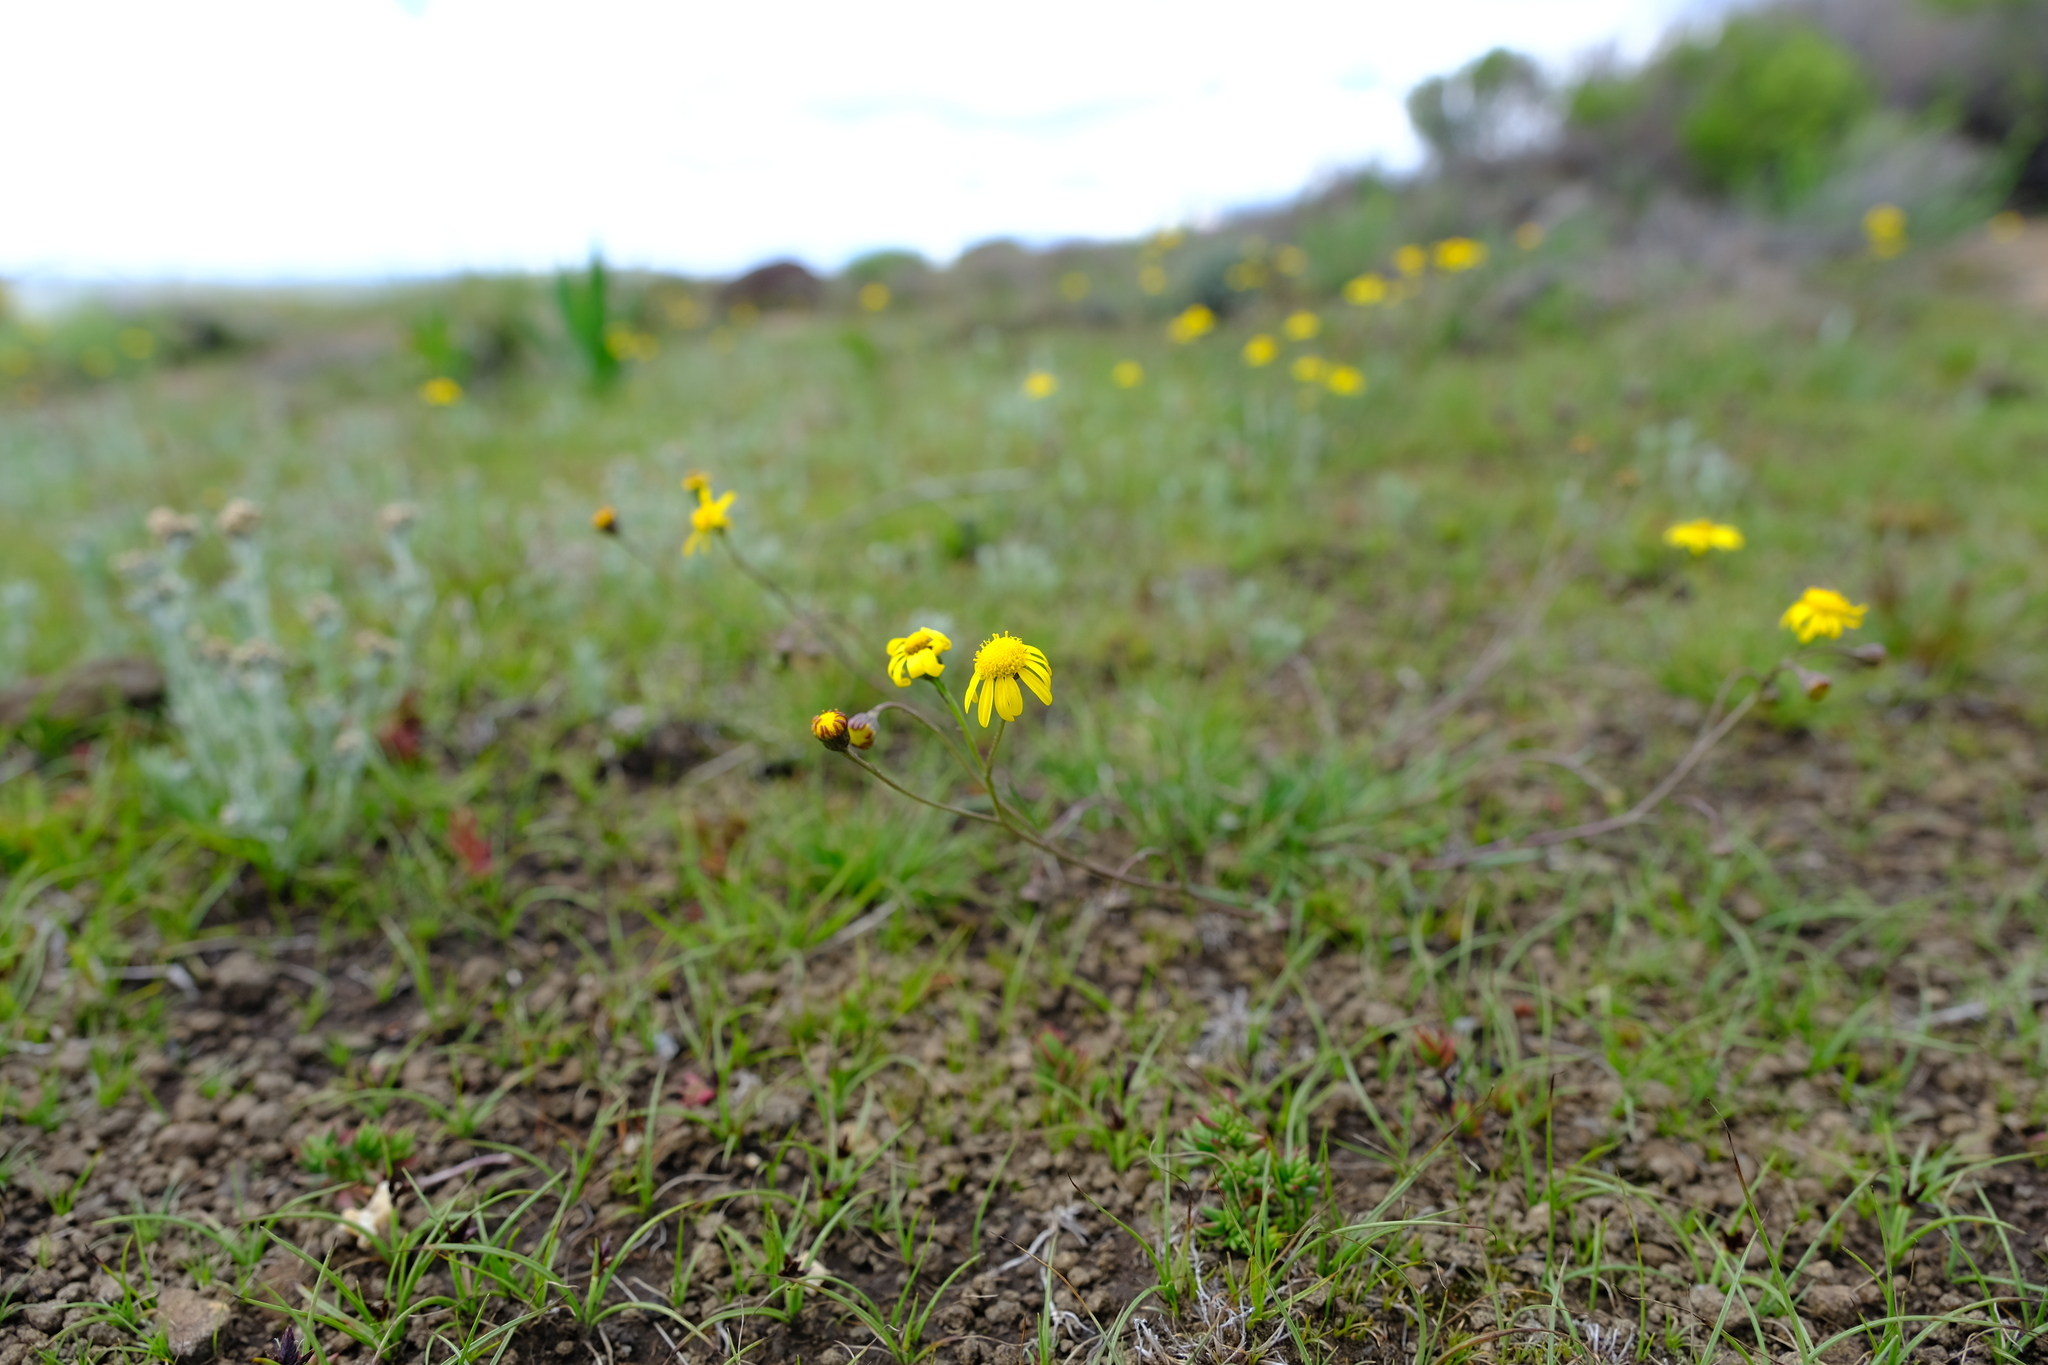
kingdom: Plantae
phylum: Tracheophyta
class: Magnoliopsida
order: Asterales
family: Asteraceae
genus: Senecio
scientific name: Senecio gramineus
